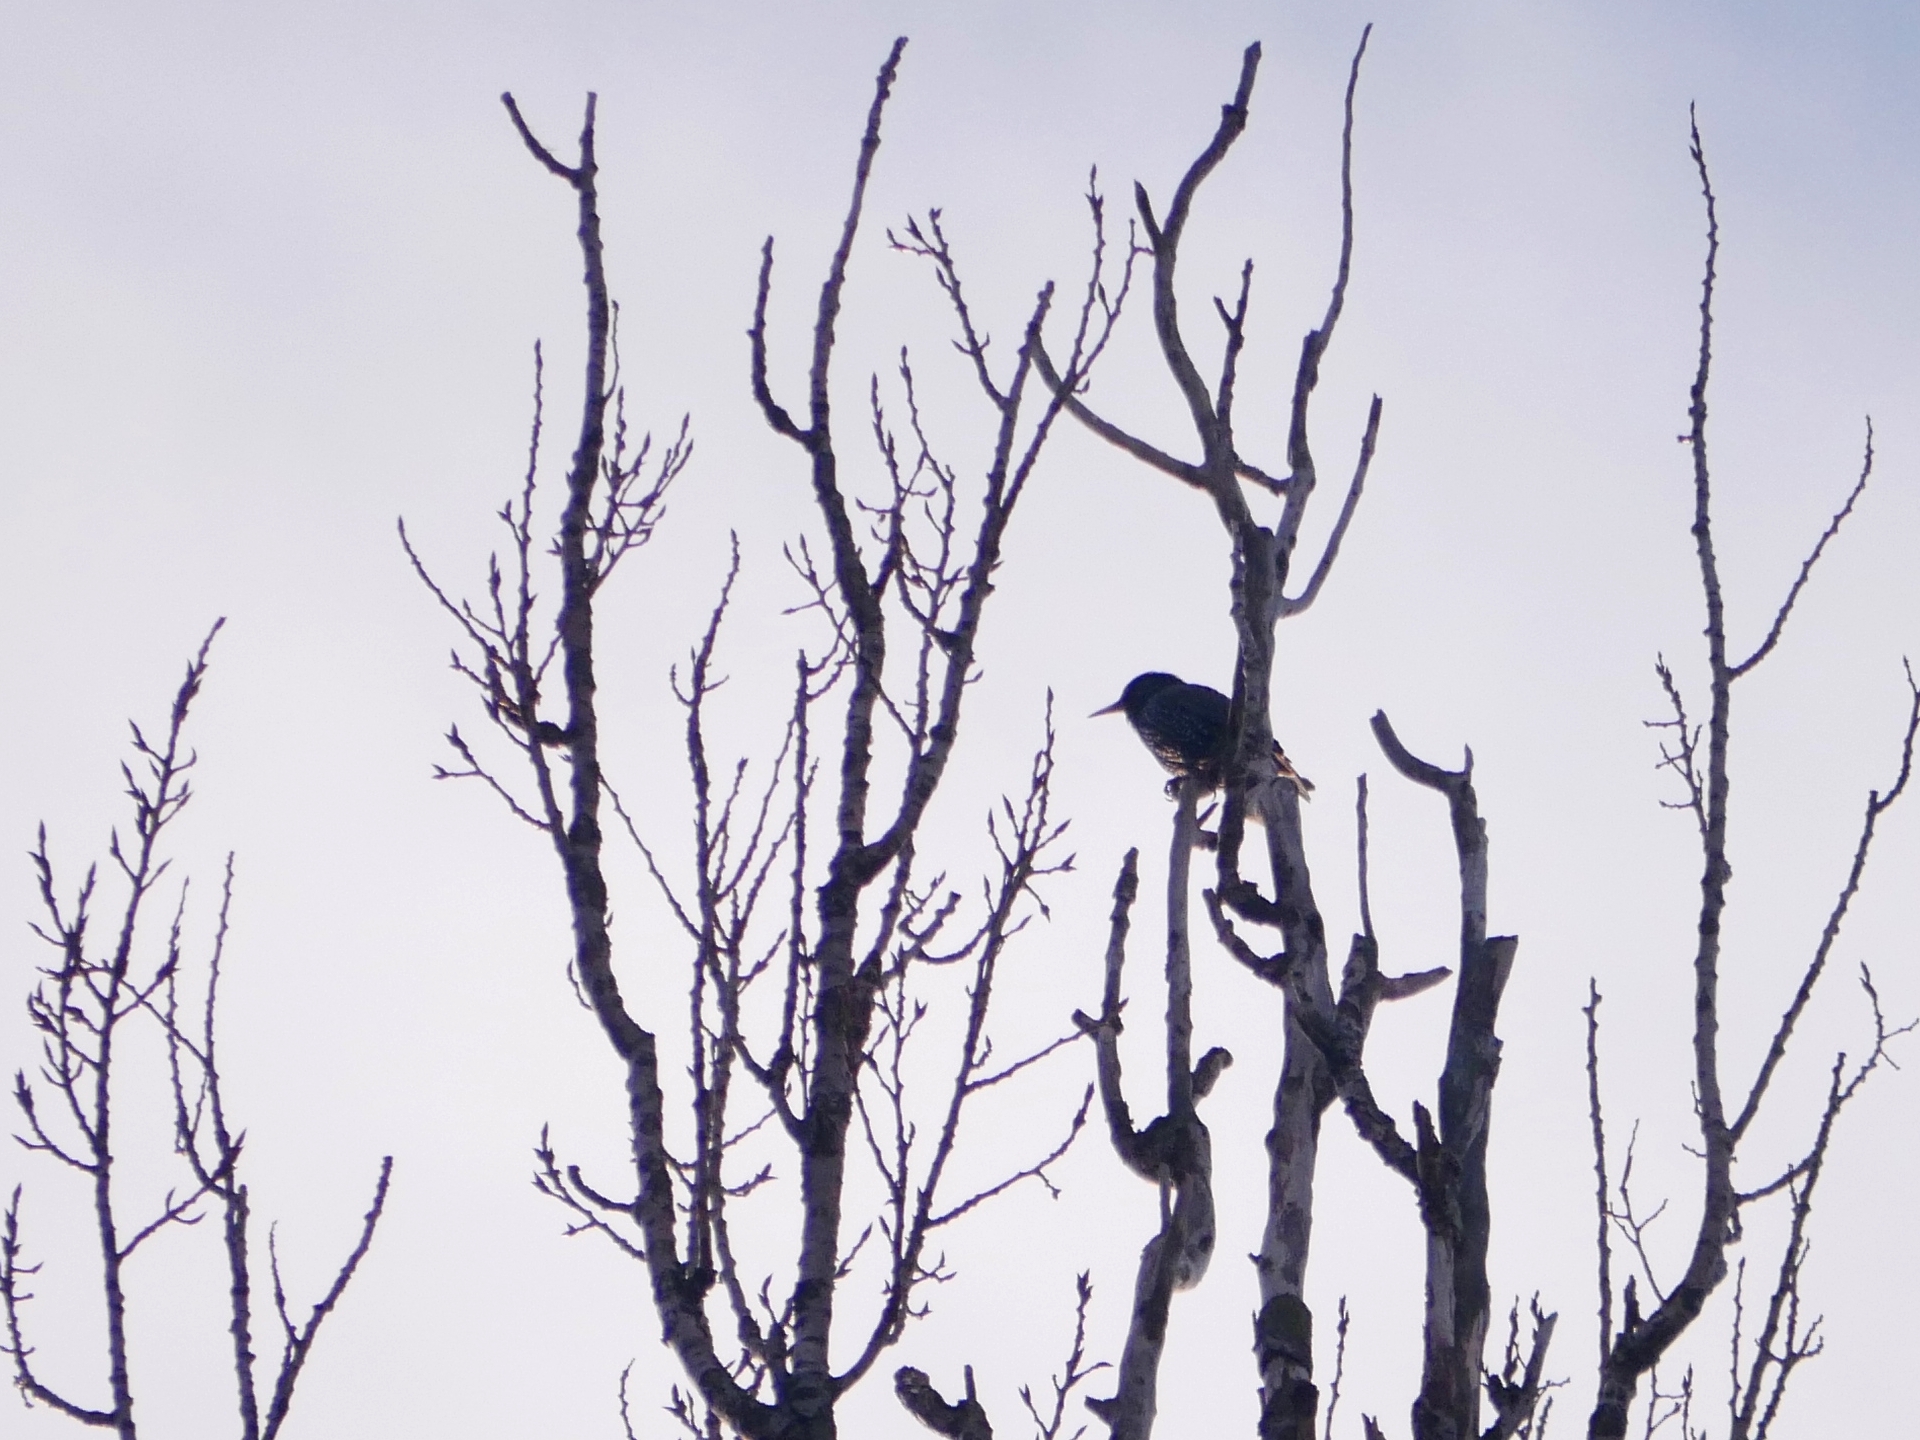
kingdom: Animalia
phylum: Chordata
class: Aves
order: Passeriformes
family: Sturnidae
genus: Sturnus
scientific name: Sturnus vulgaris
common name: Common starling
